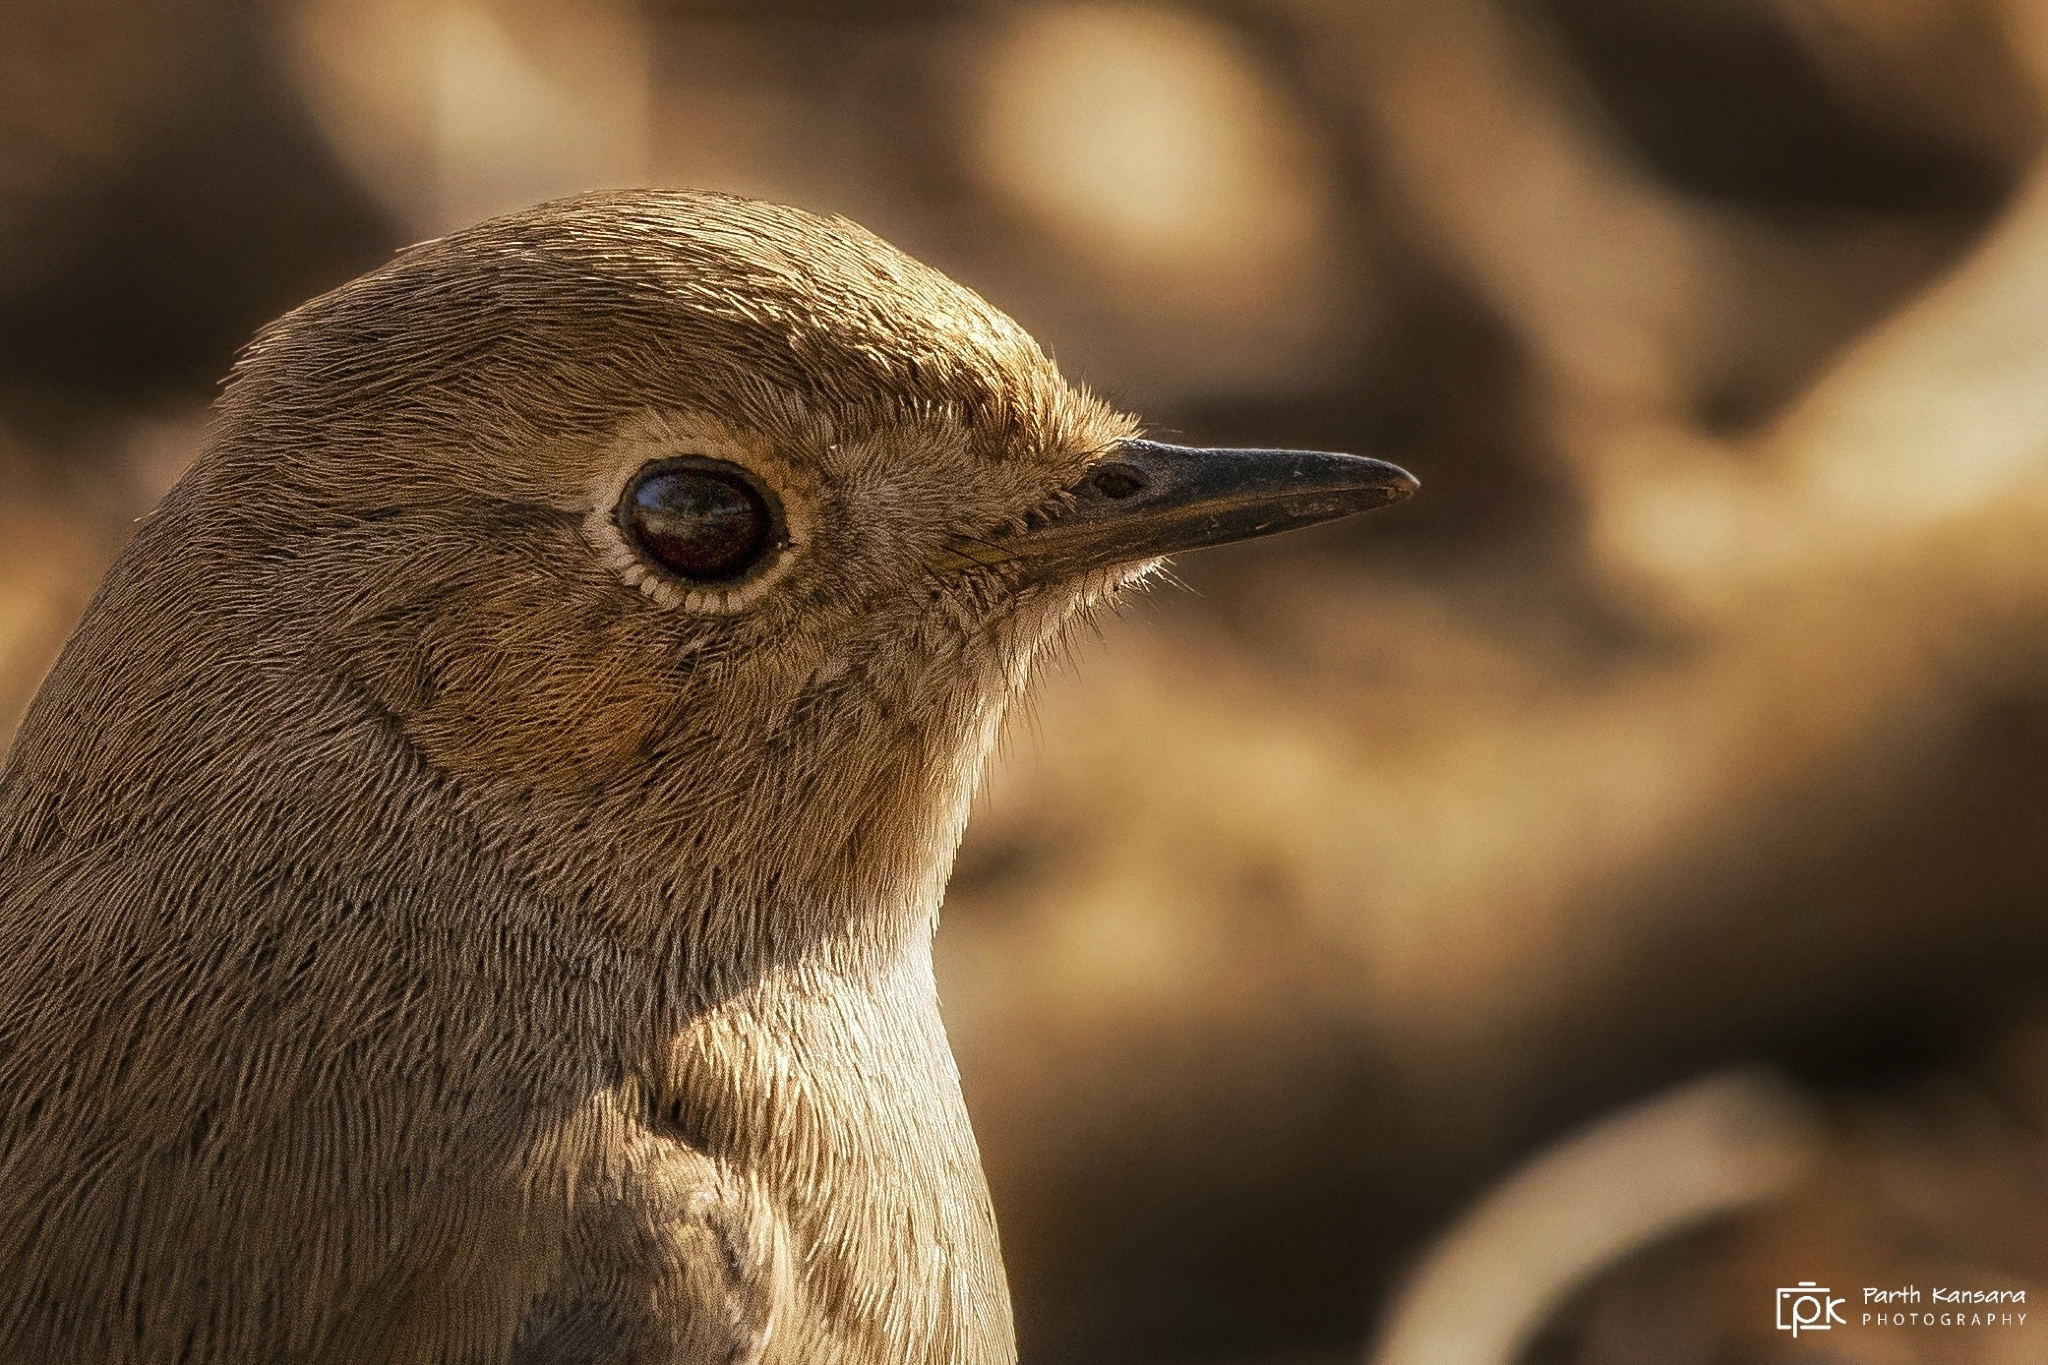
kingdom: Animalia
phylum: Chordata
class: Aves
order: Passeriformes
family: Muscicapidae
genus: Phoenicurus
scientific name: Phoenicurus ochruros
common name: Black redstart
